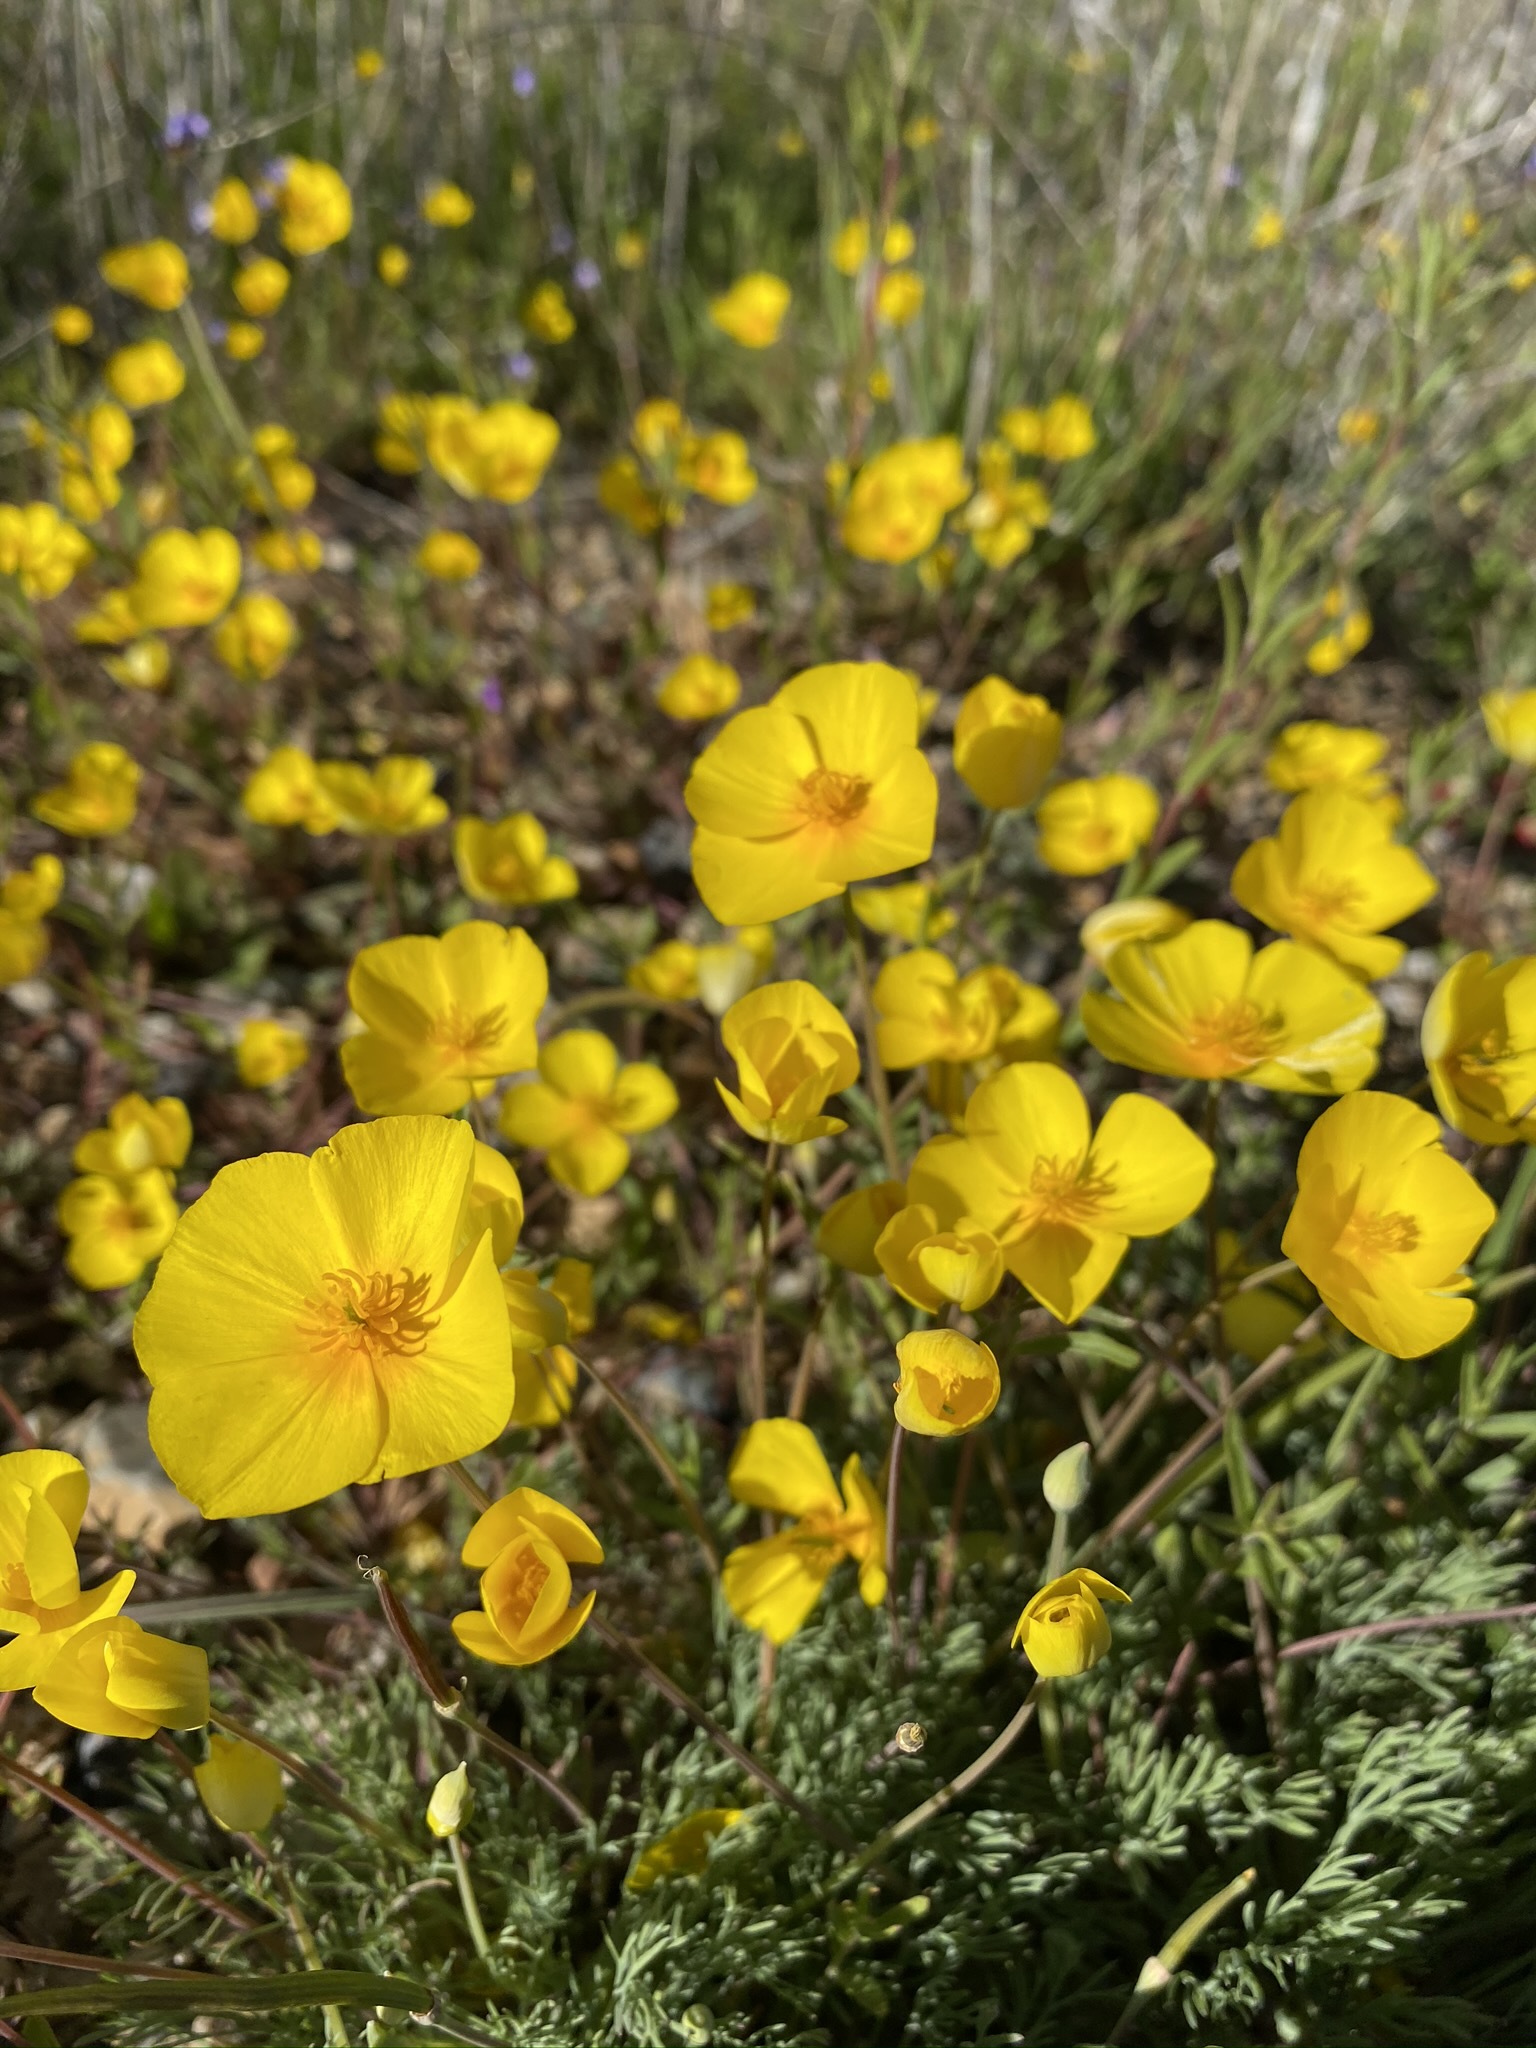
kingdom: Plantae
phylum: Tracheophyta
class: Magnoliopsida
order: Ranunculales
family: Papaveraceae
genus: Eschscholzia
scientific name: Eschscholzia lobbii
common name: Frying-pans
